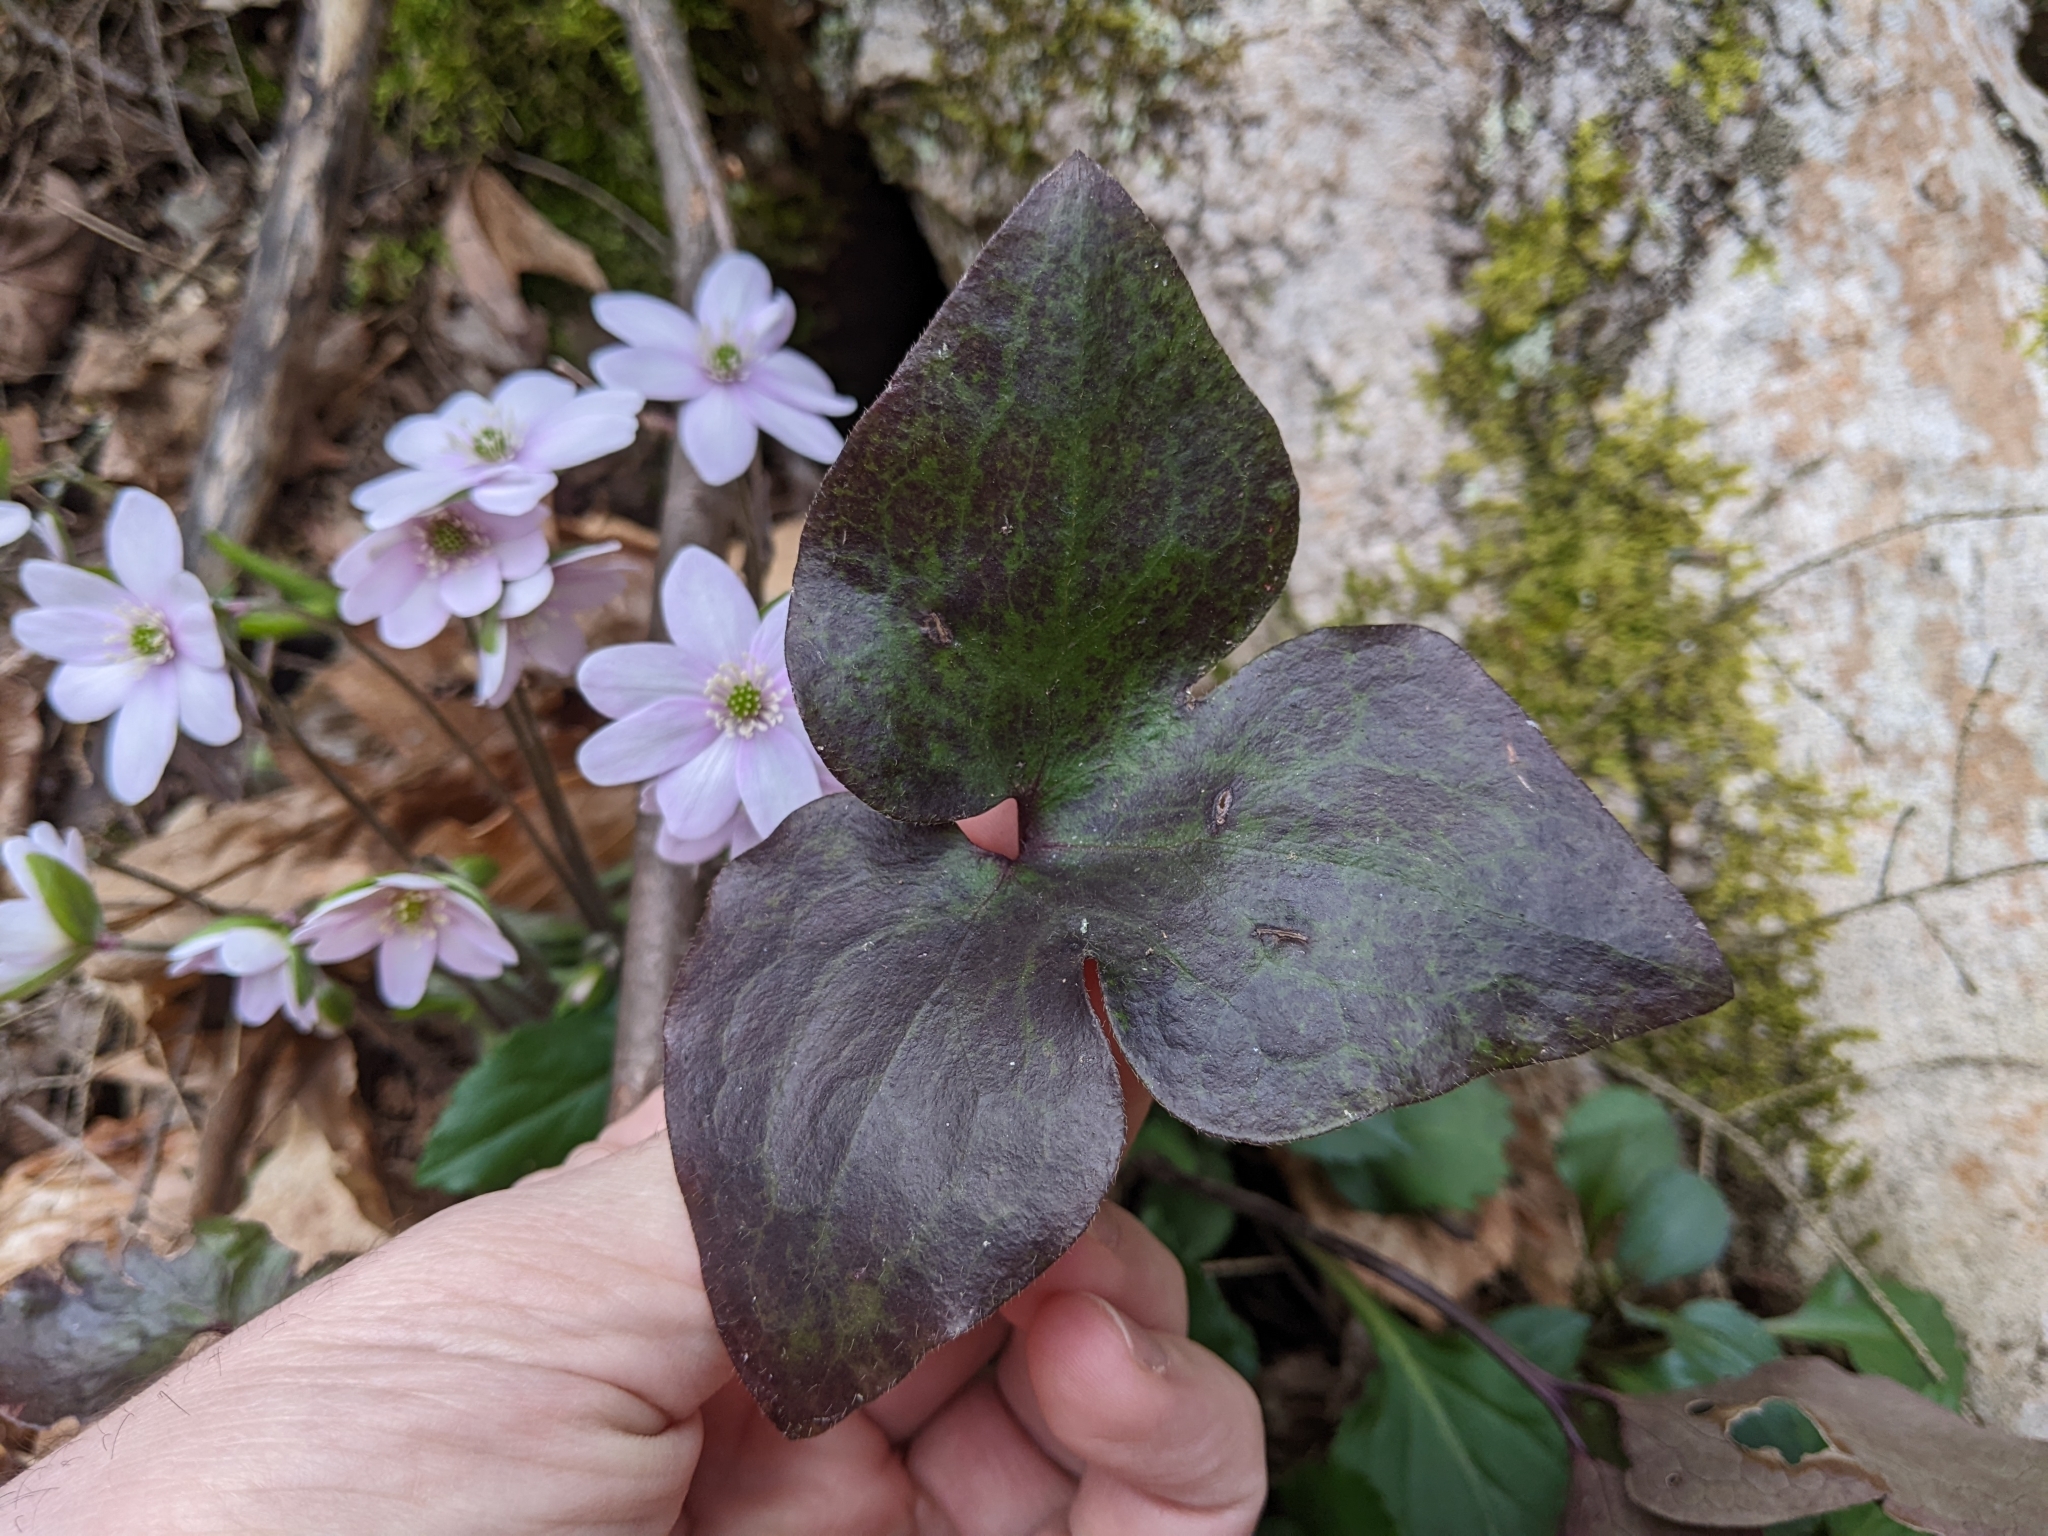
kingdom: Plantae
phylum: Tracheophyta
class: Magnoliopsida
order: Ranunculales
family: Ranunculaceae
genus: Hepatica
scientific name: Hepatica acutiloba
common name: Sharp-lobed hepatica
